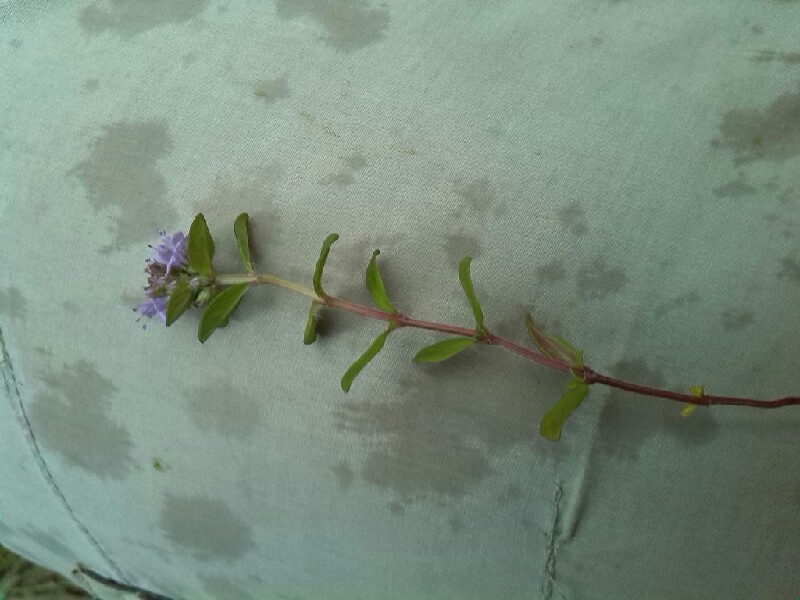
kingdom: Plantae
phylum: Tracheophyta
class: Magnoliopsida
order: Lamiales
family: Lamiaceae
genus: Thymus
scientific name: Thymus pulegioides
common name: Large thyme
